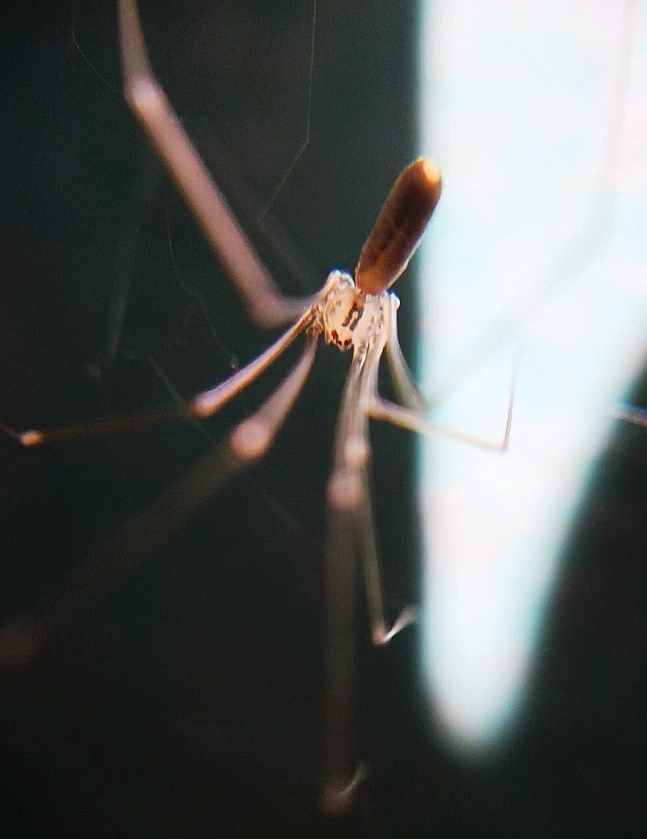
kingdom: Animalia
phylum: Arthropoda
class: Arachnida
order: Araneae
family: Pholcidae
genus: Pholcus
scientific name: Pholcus opilionoides
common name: Daddylongleg spider
